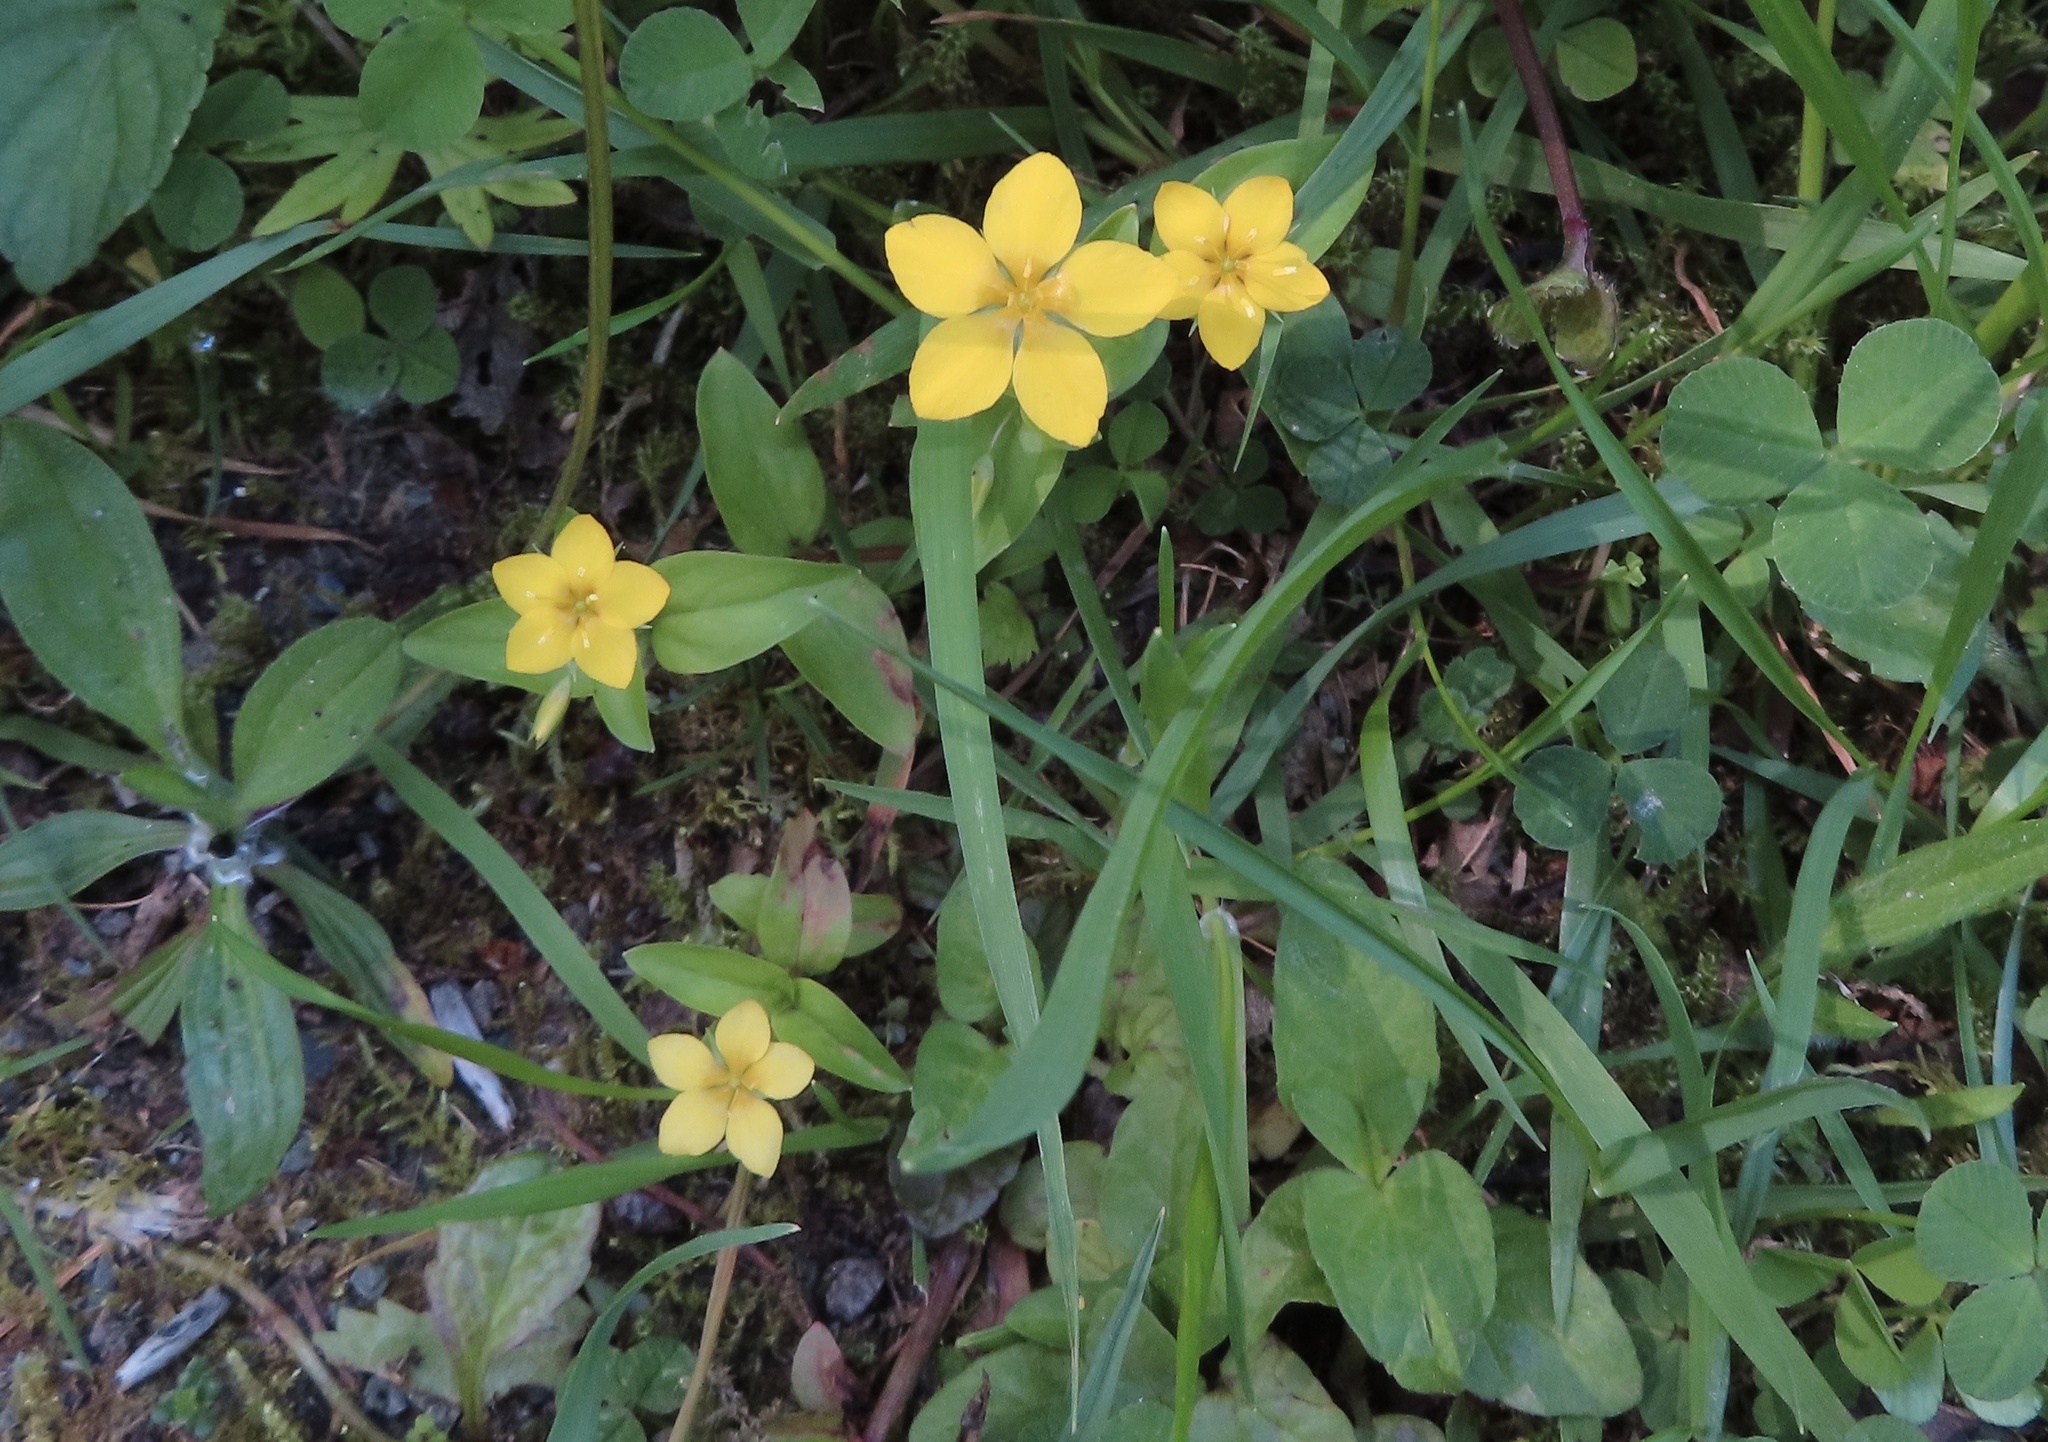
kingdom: Plantae
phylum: Tracheophyta
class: Magnoliopsida
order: Ericales
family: Primulaceae
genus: Lysimachia
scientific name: Lysimachia nemorum
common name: Yellow pimpernel
